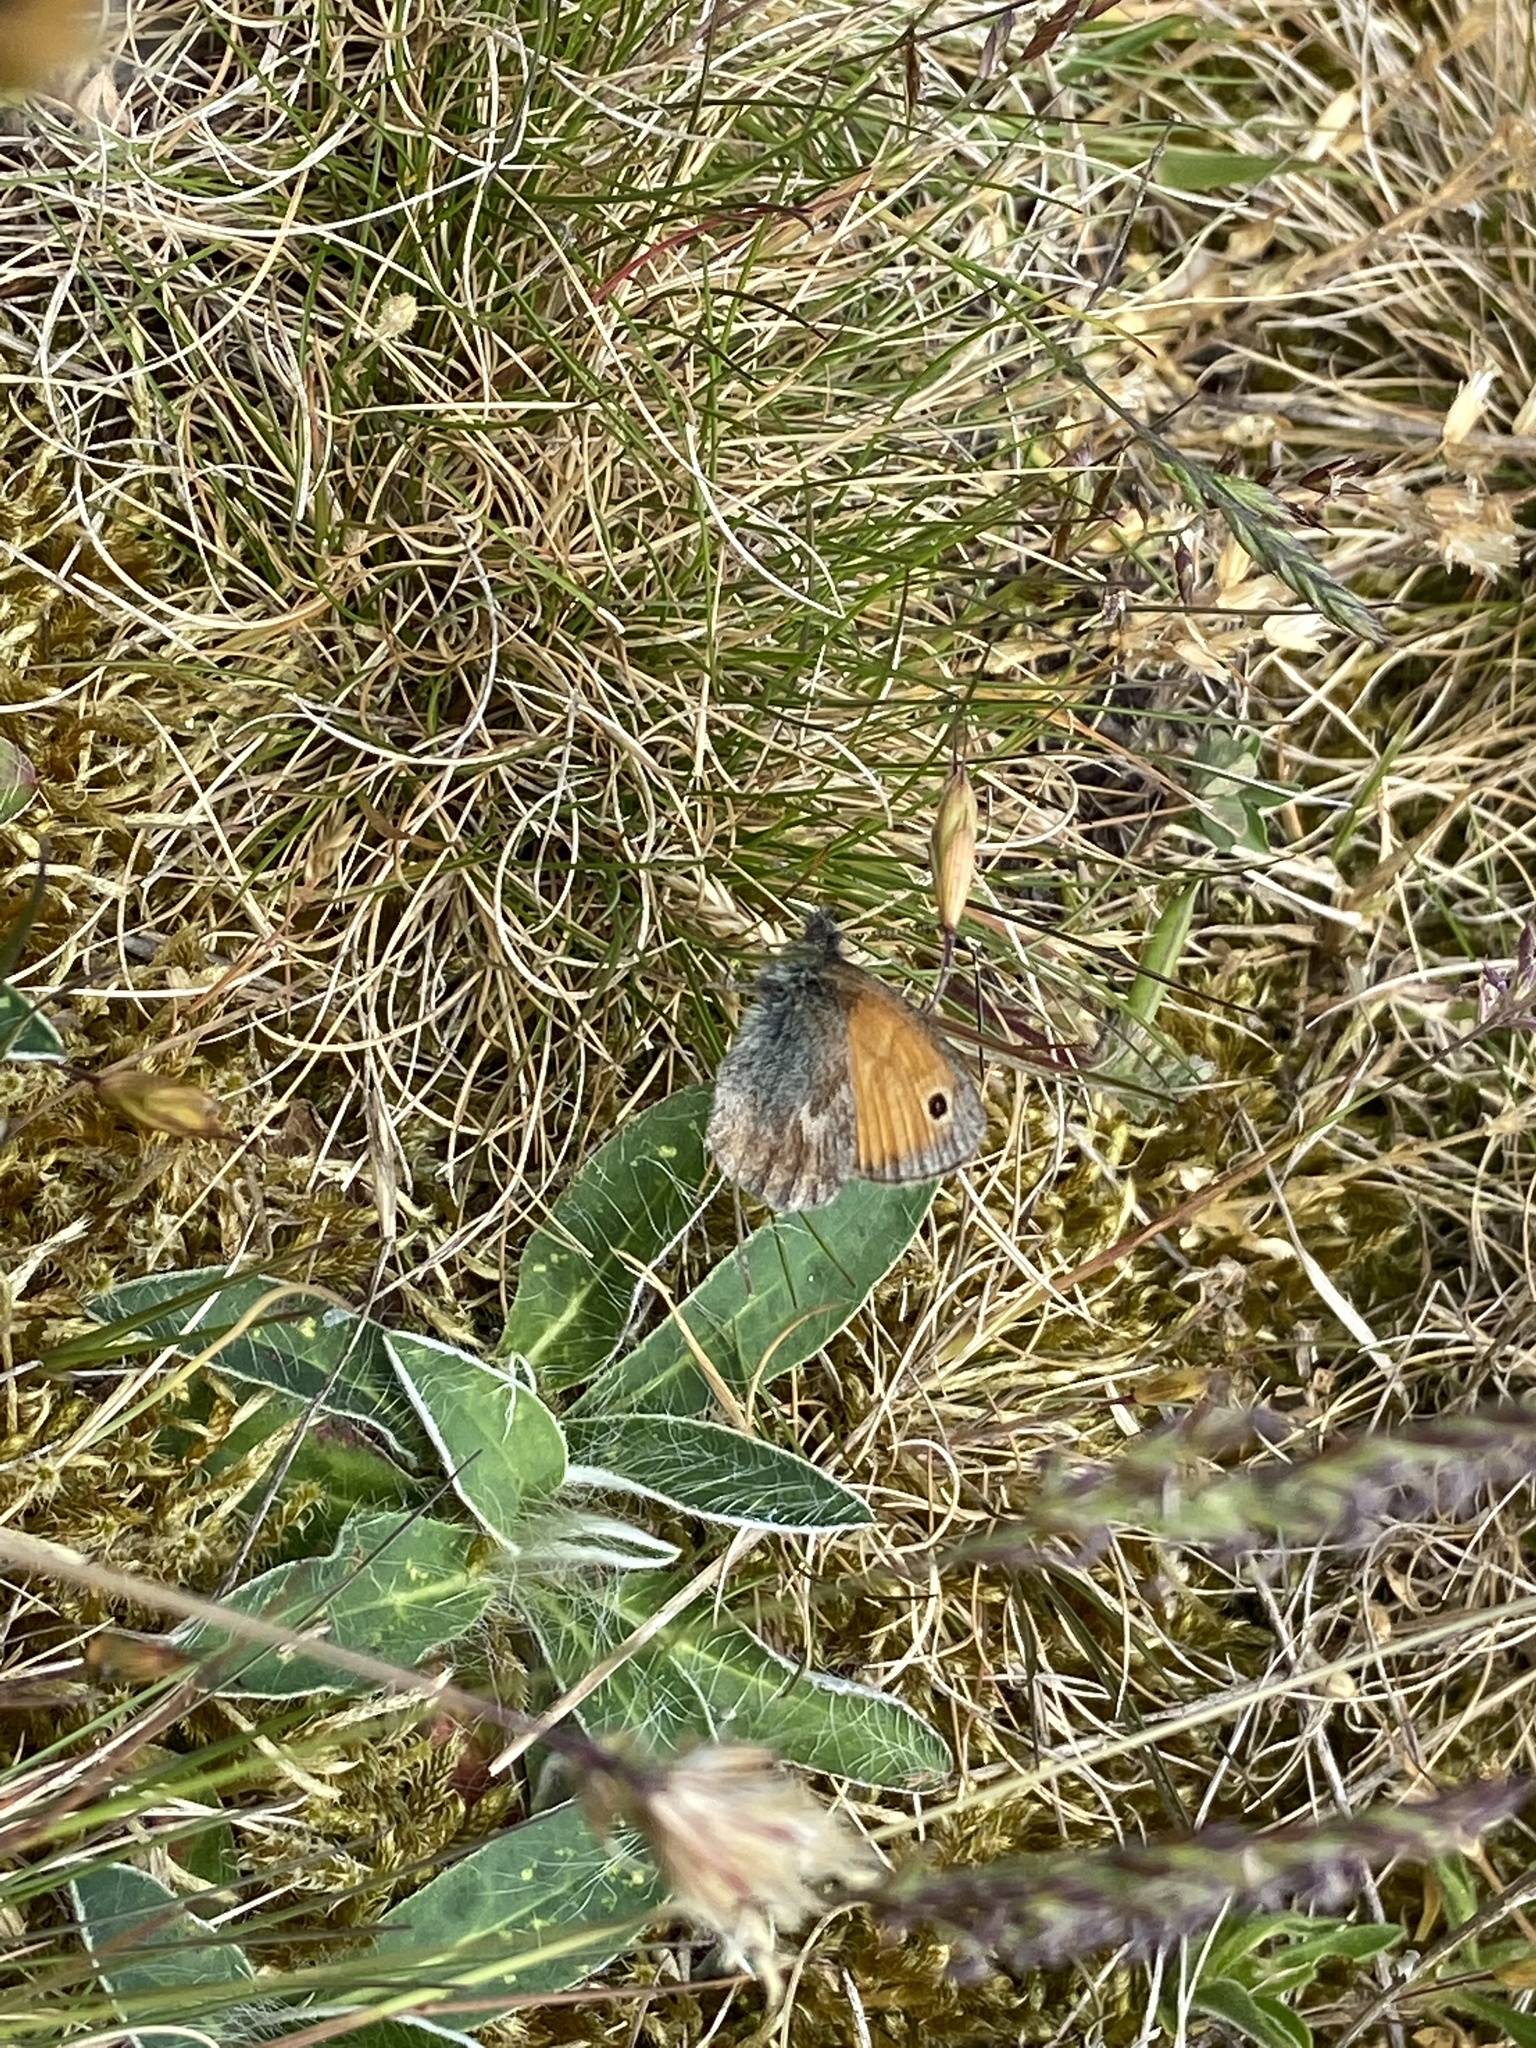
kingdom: Animalia
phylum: Arthropoda
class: Insecta
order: Lepidoptera
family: Nymphalidae
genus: Coenonympha
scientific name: Coenonympha pamphilus
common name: Small heath
